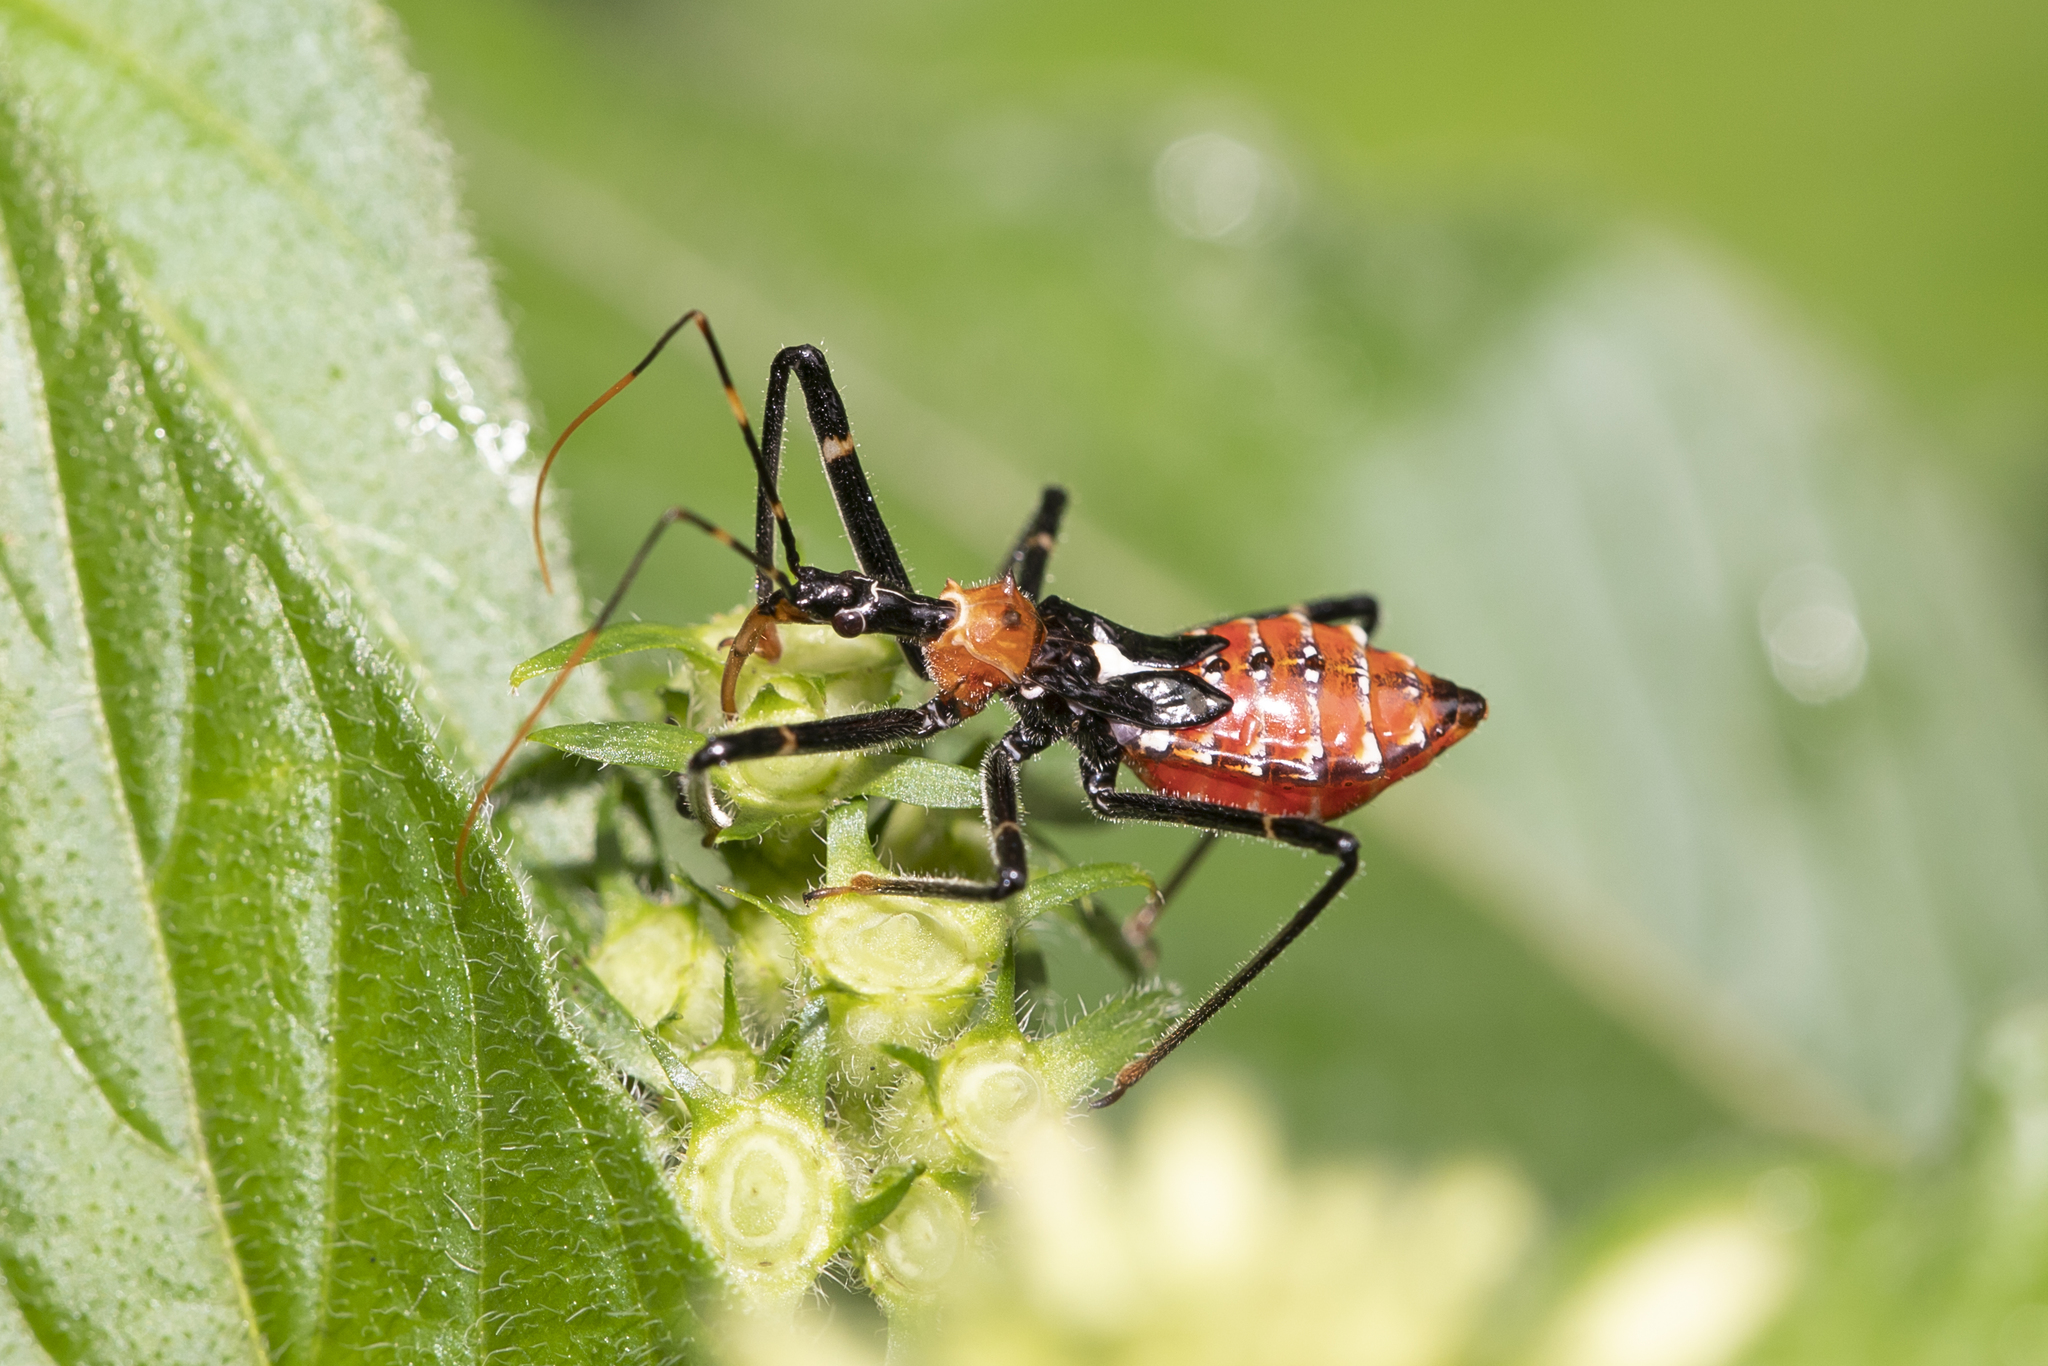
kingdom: Animalia
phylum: Arthropoda
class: Insecta
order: Hemiptera
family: Reduviidae
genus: Pristhesancus
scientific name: Pristhesancus plagipennis
